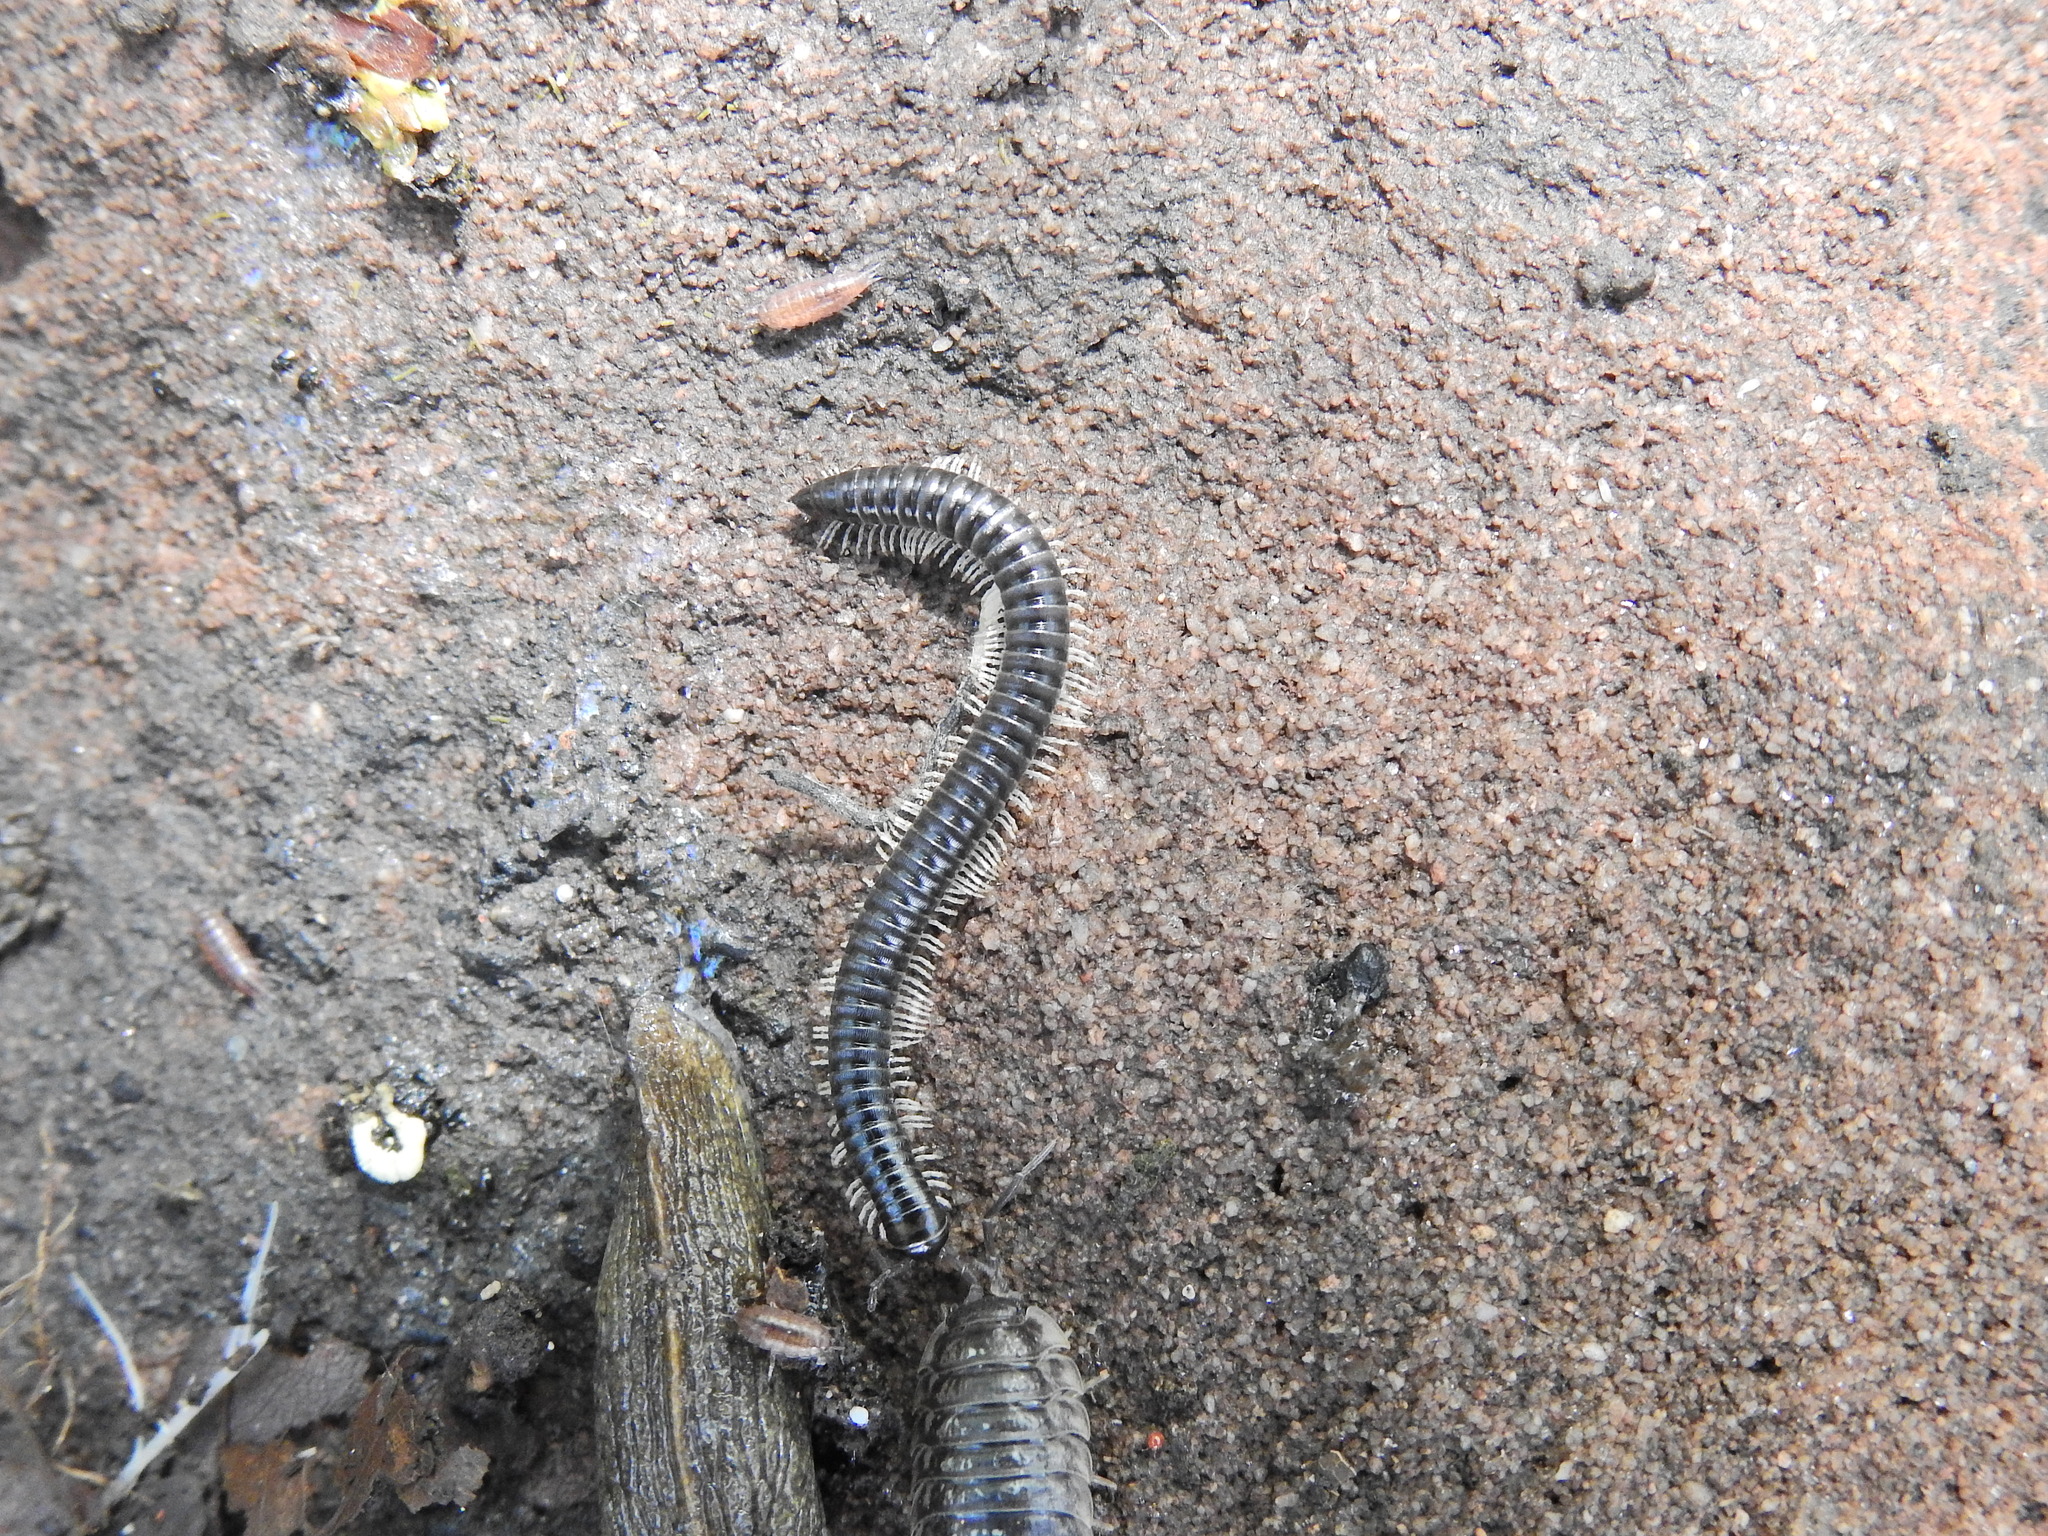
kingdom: Animalia
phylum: Arthropoda
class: Malacostraca
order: Isopoda
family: Trichoniscidae
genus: Trichoniscus
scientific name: Trichoniscus
